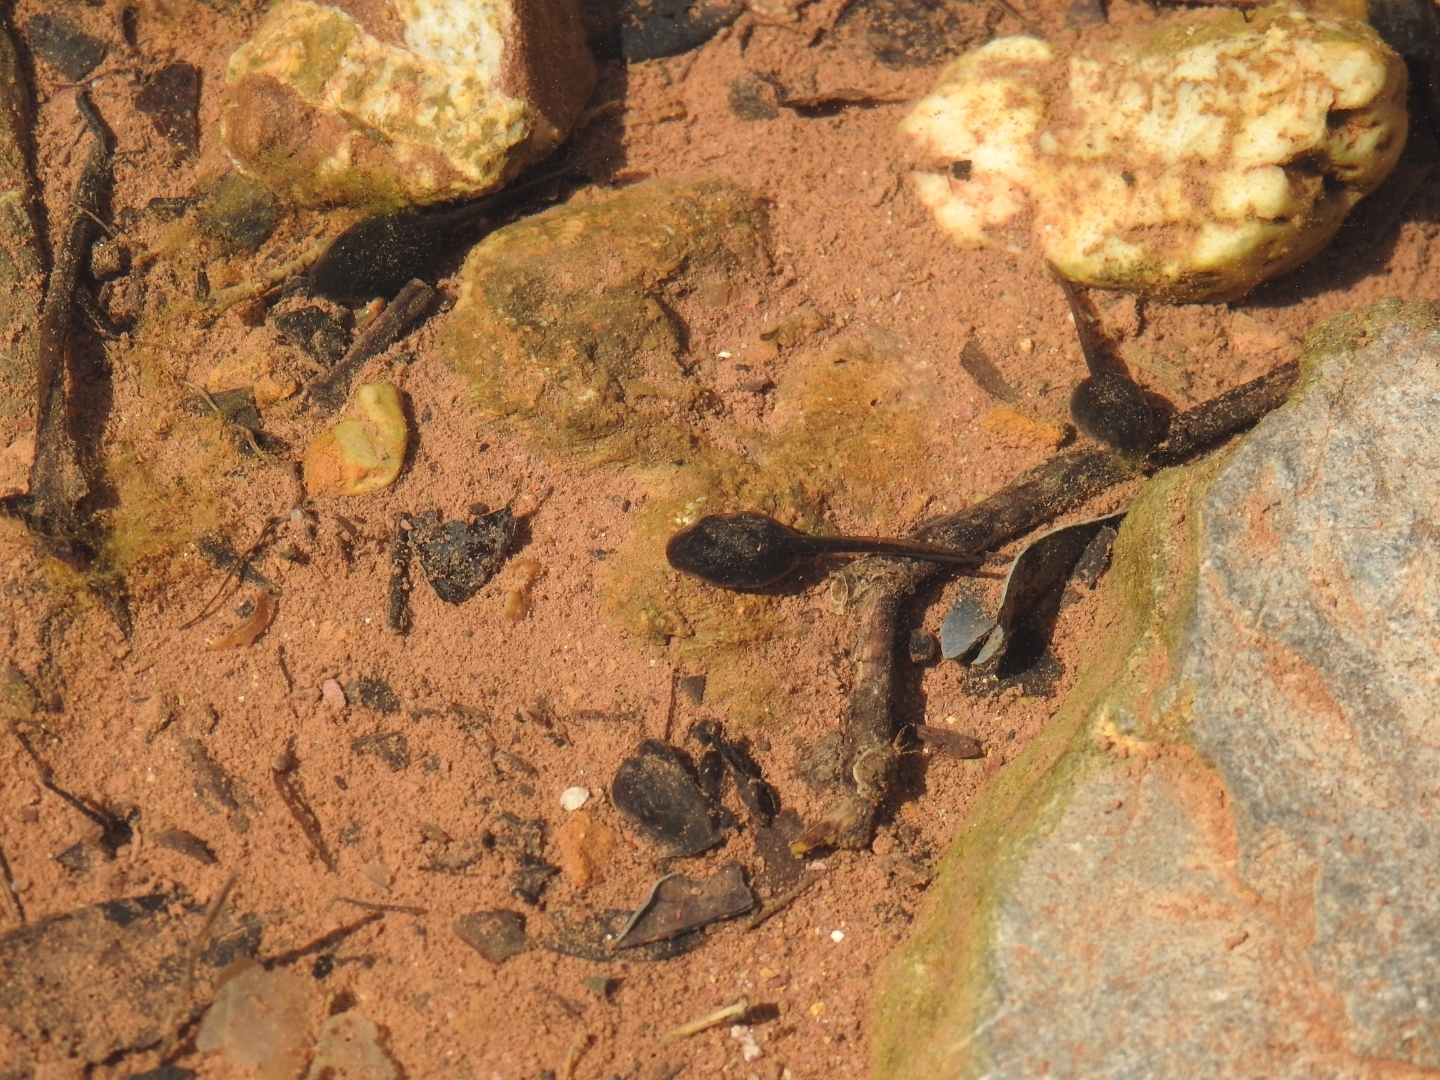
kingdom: Animalia
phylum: Chordata
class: Amphibia
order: Anura
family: Bufonidae
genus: Bufotes
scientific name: Bufotes viridis
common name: European green toad
